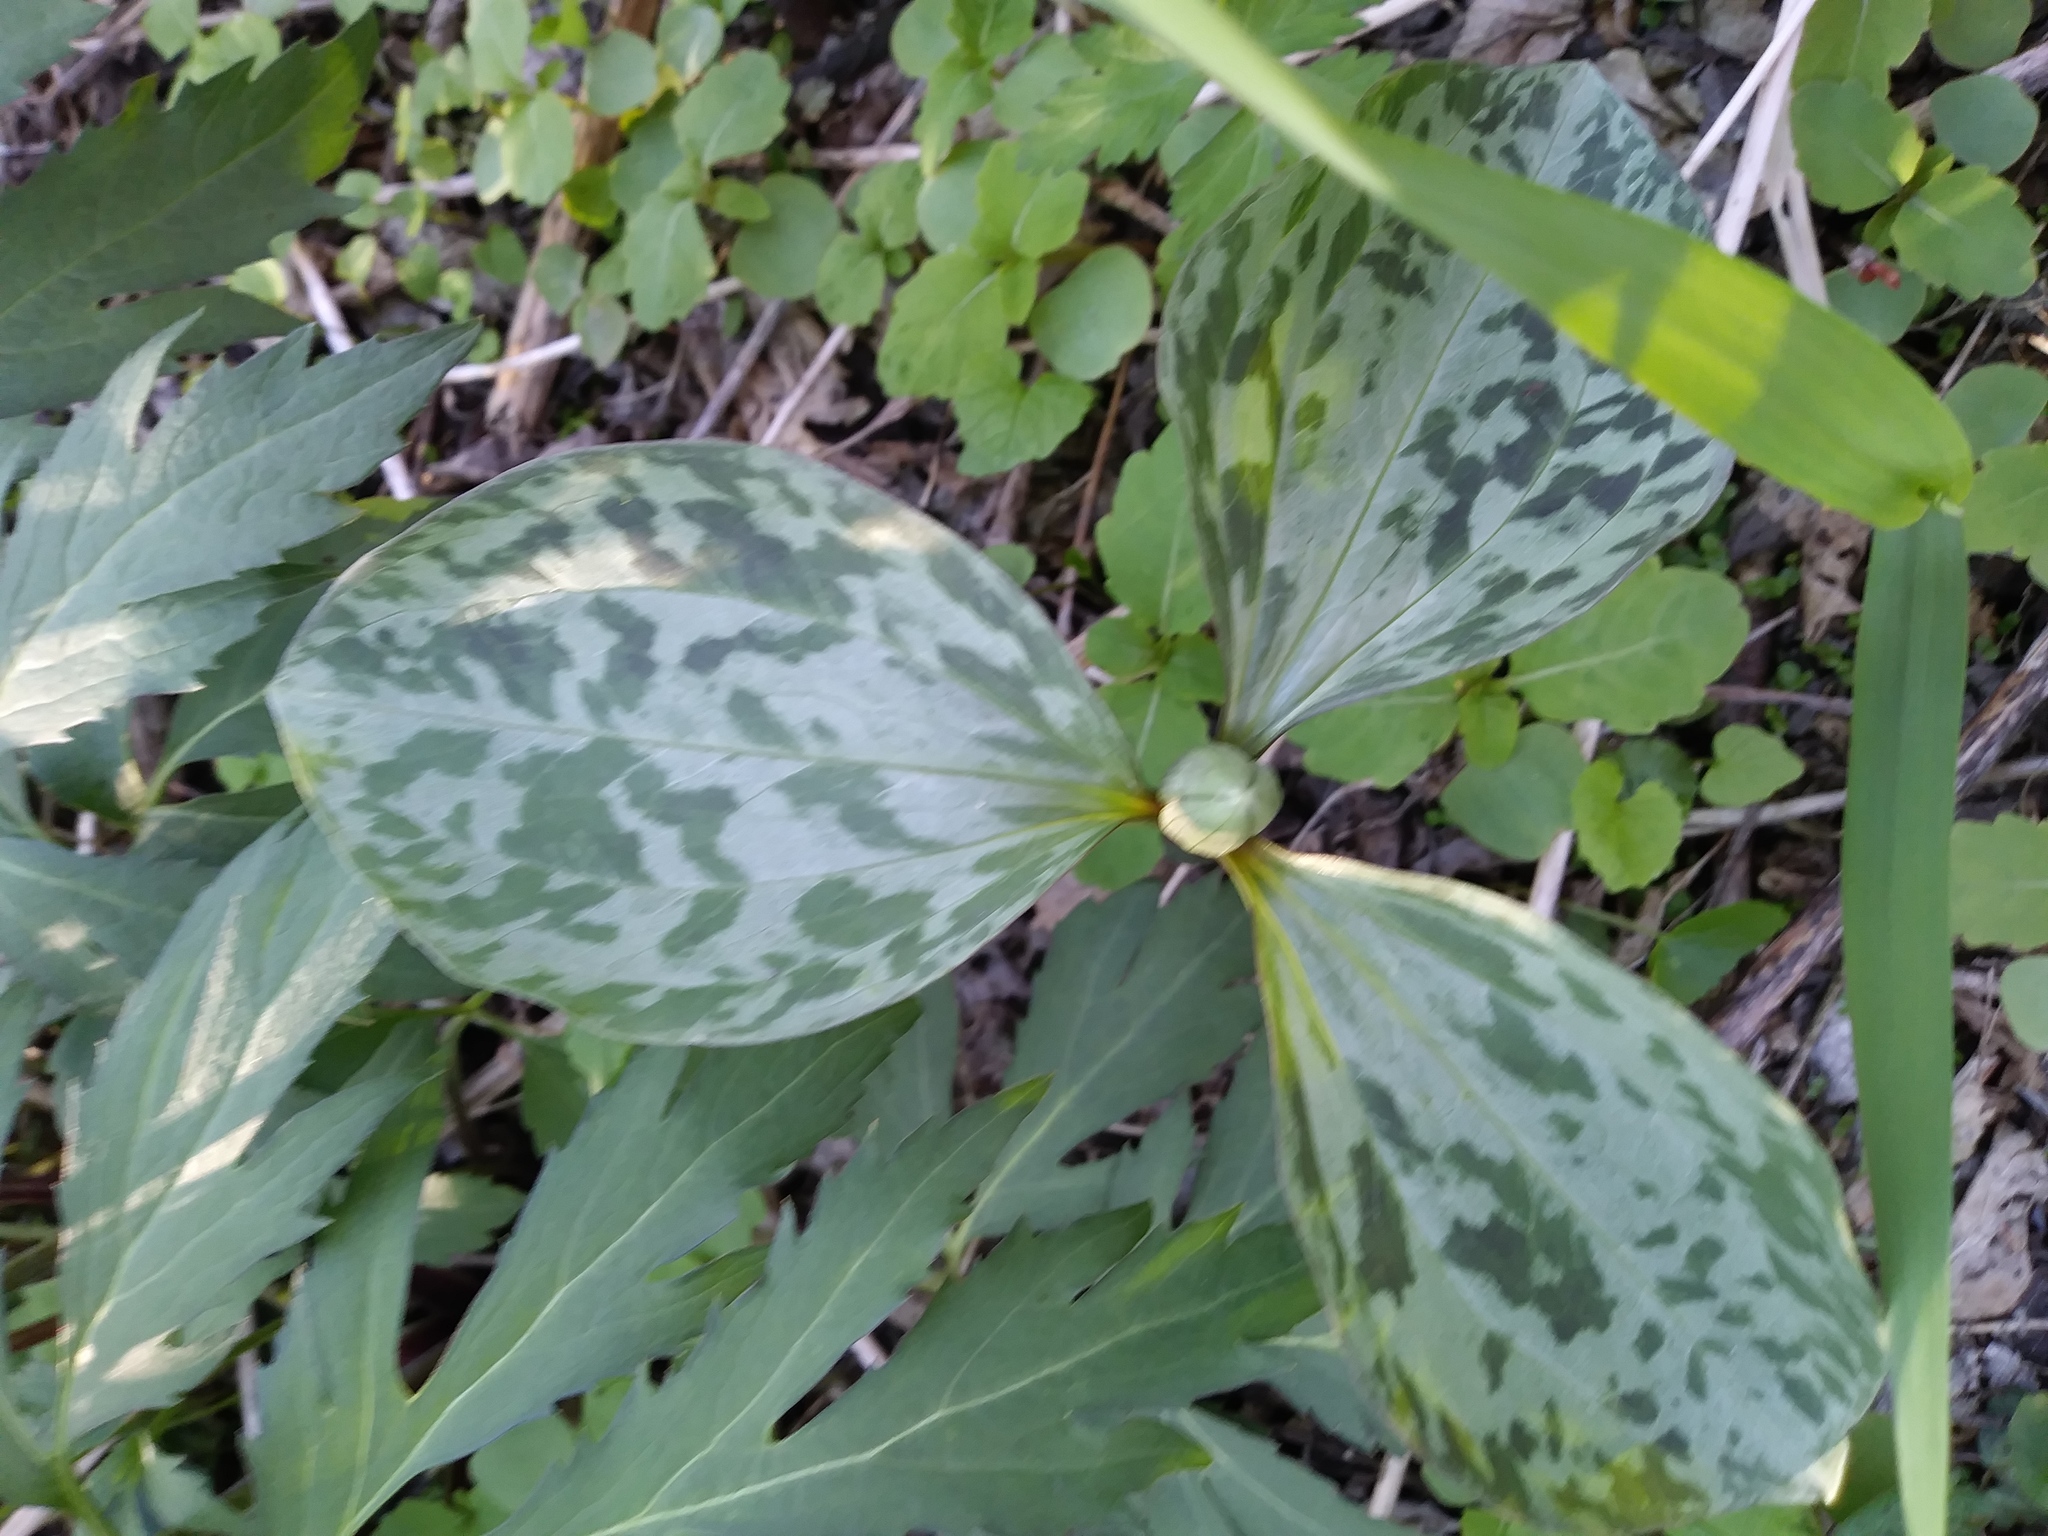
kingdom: Plantae
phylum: Tracheophyta
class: Liliopsida
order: Liliales
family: Melanthiaceae
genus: Trillium
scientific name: Trillium recurvatum
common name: Bloody butcher
